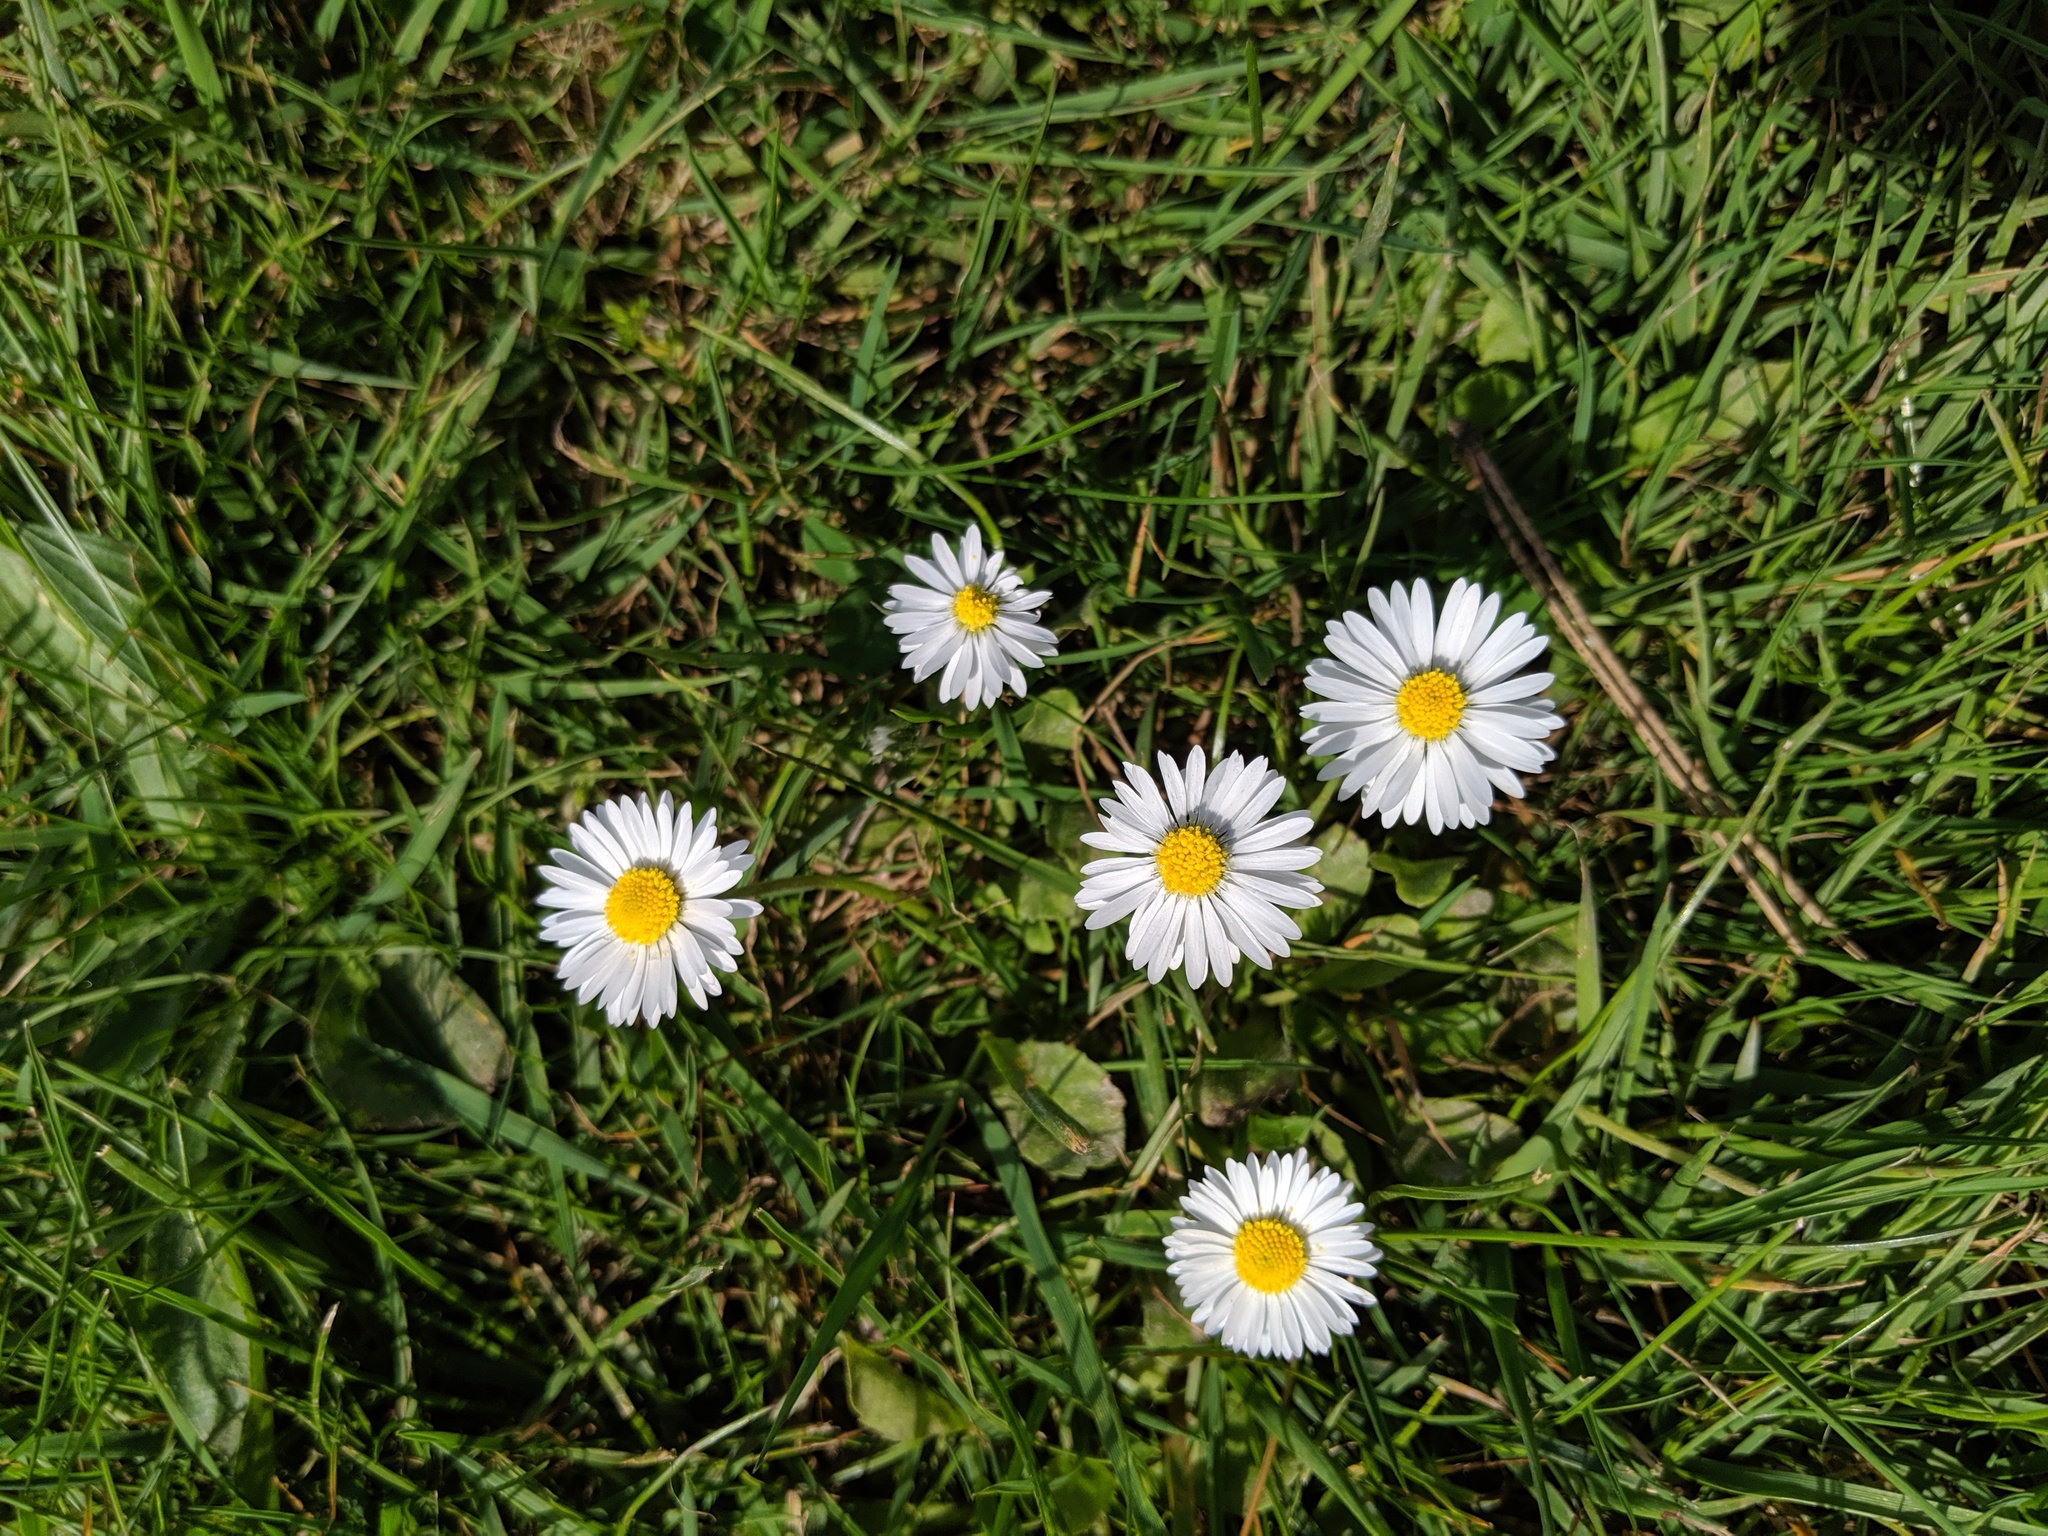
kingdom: Plantae
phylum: Tracheophyta
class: Magnoliopsida
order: Asterales
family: Asteraceae
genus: Bellis
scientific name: Bellis perennis
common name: Lawndaisy
